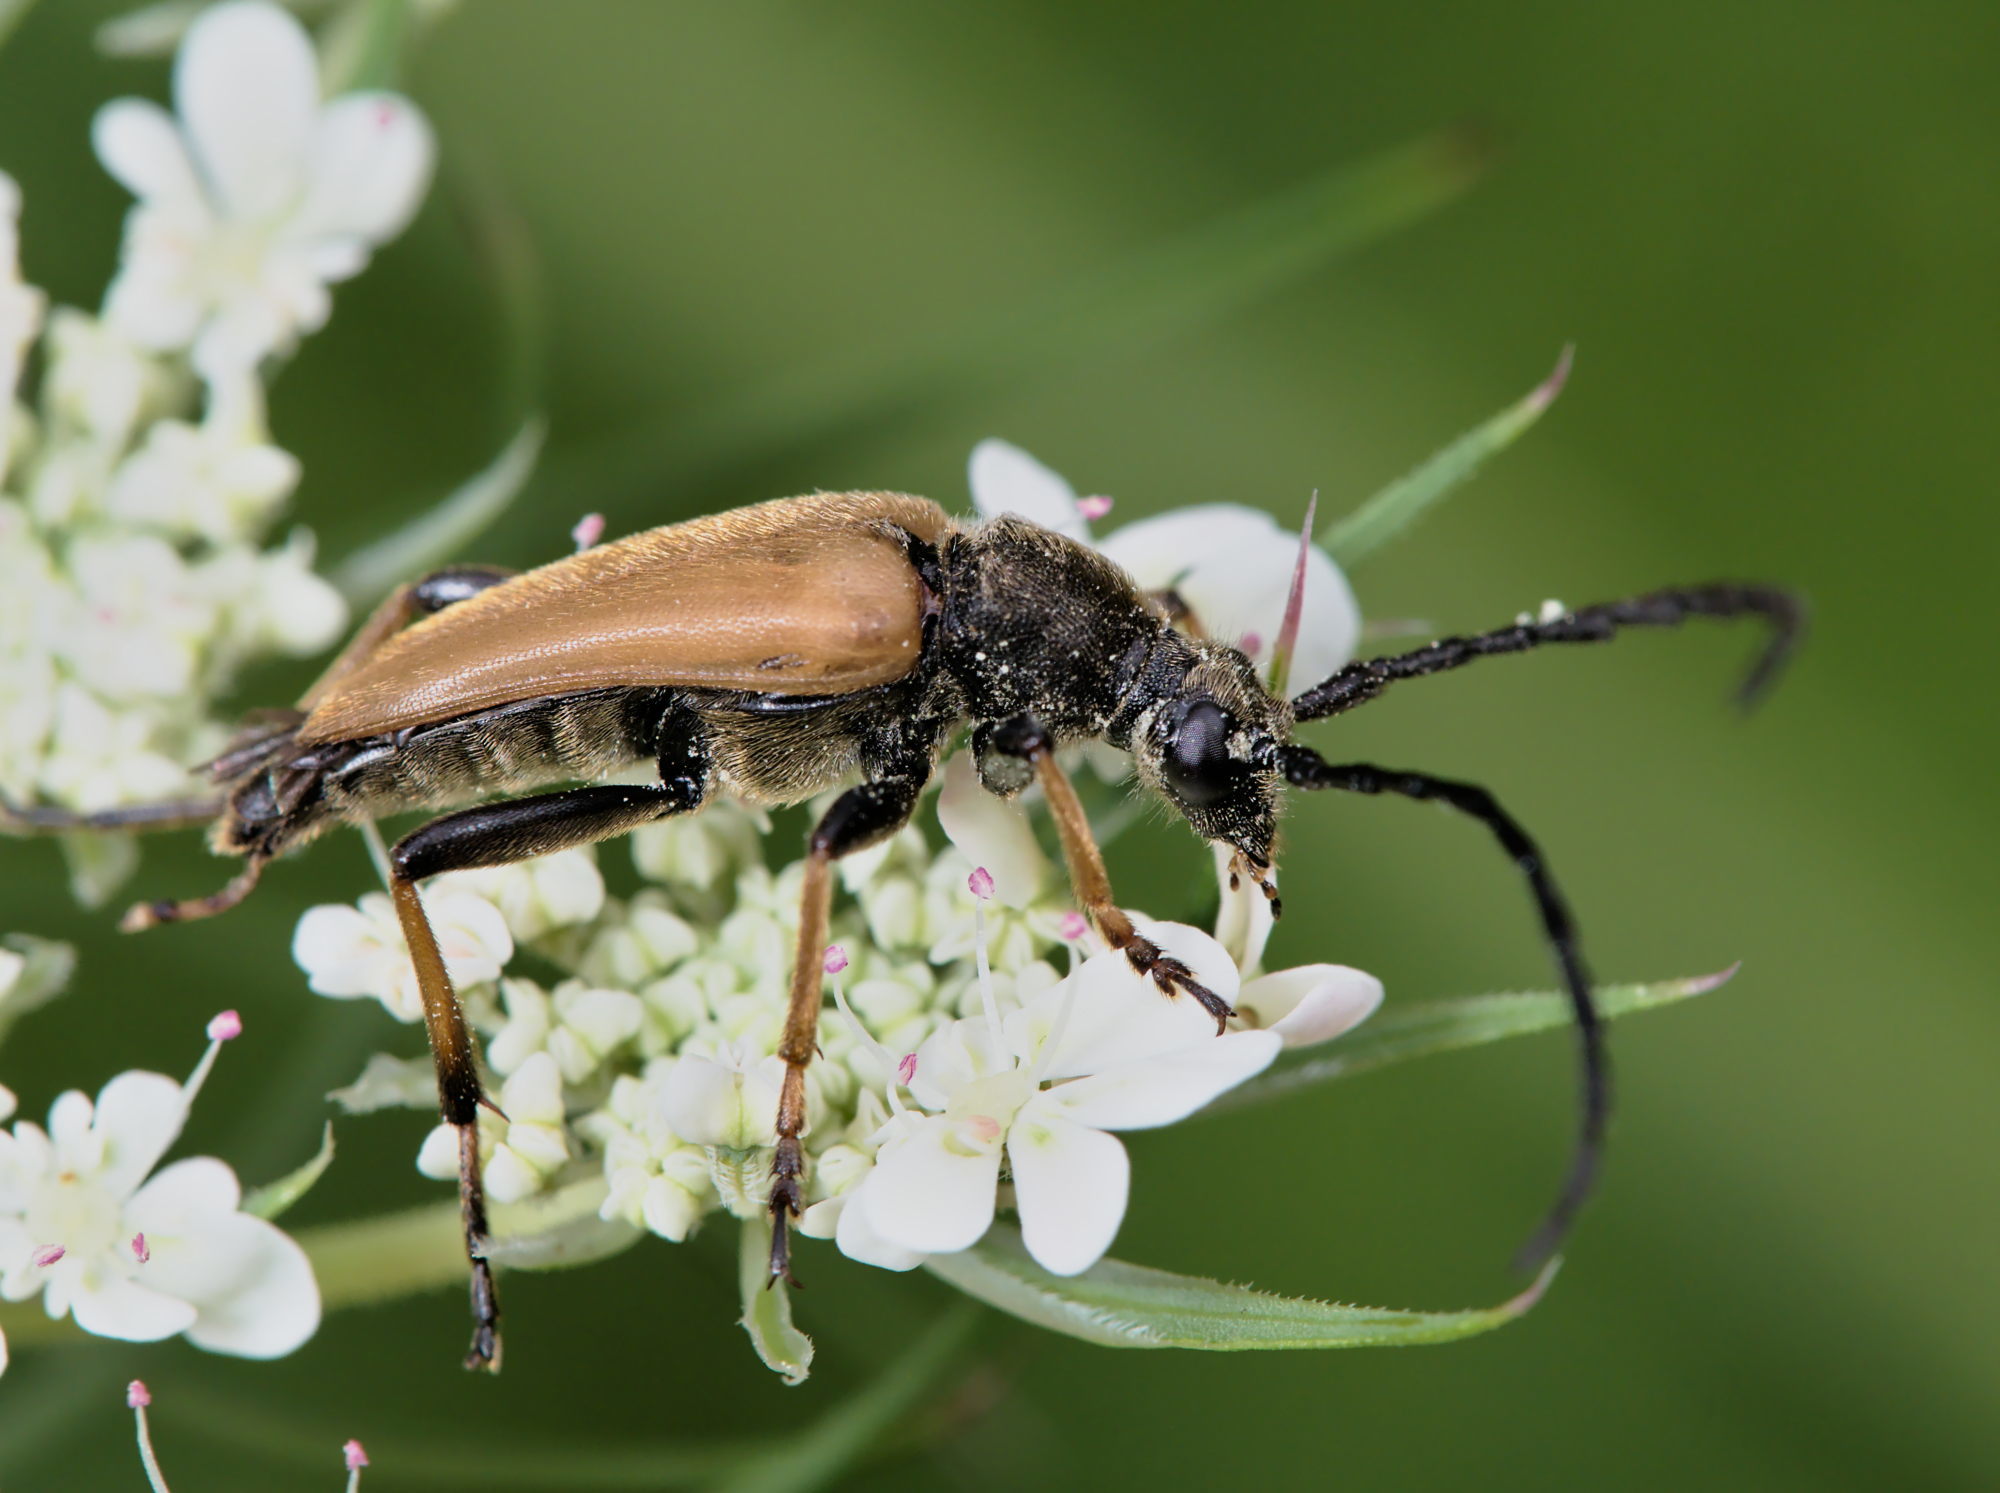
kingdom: Animalia
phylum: Arthropoda
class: Insecta
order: Coleoptera
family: Cerambycidae
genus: Stictoleptura
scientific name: Stictoleptura rubra
